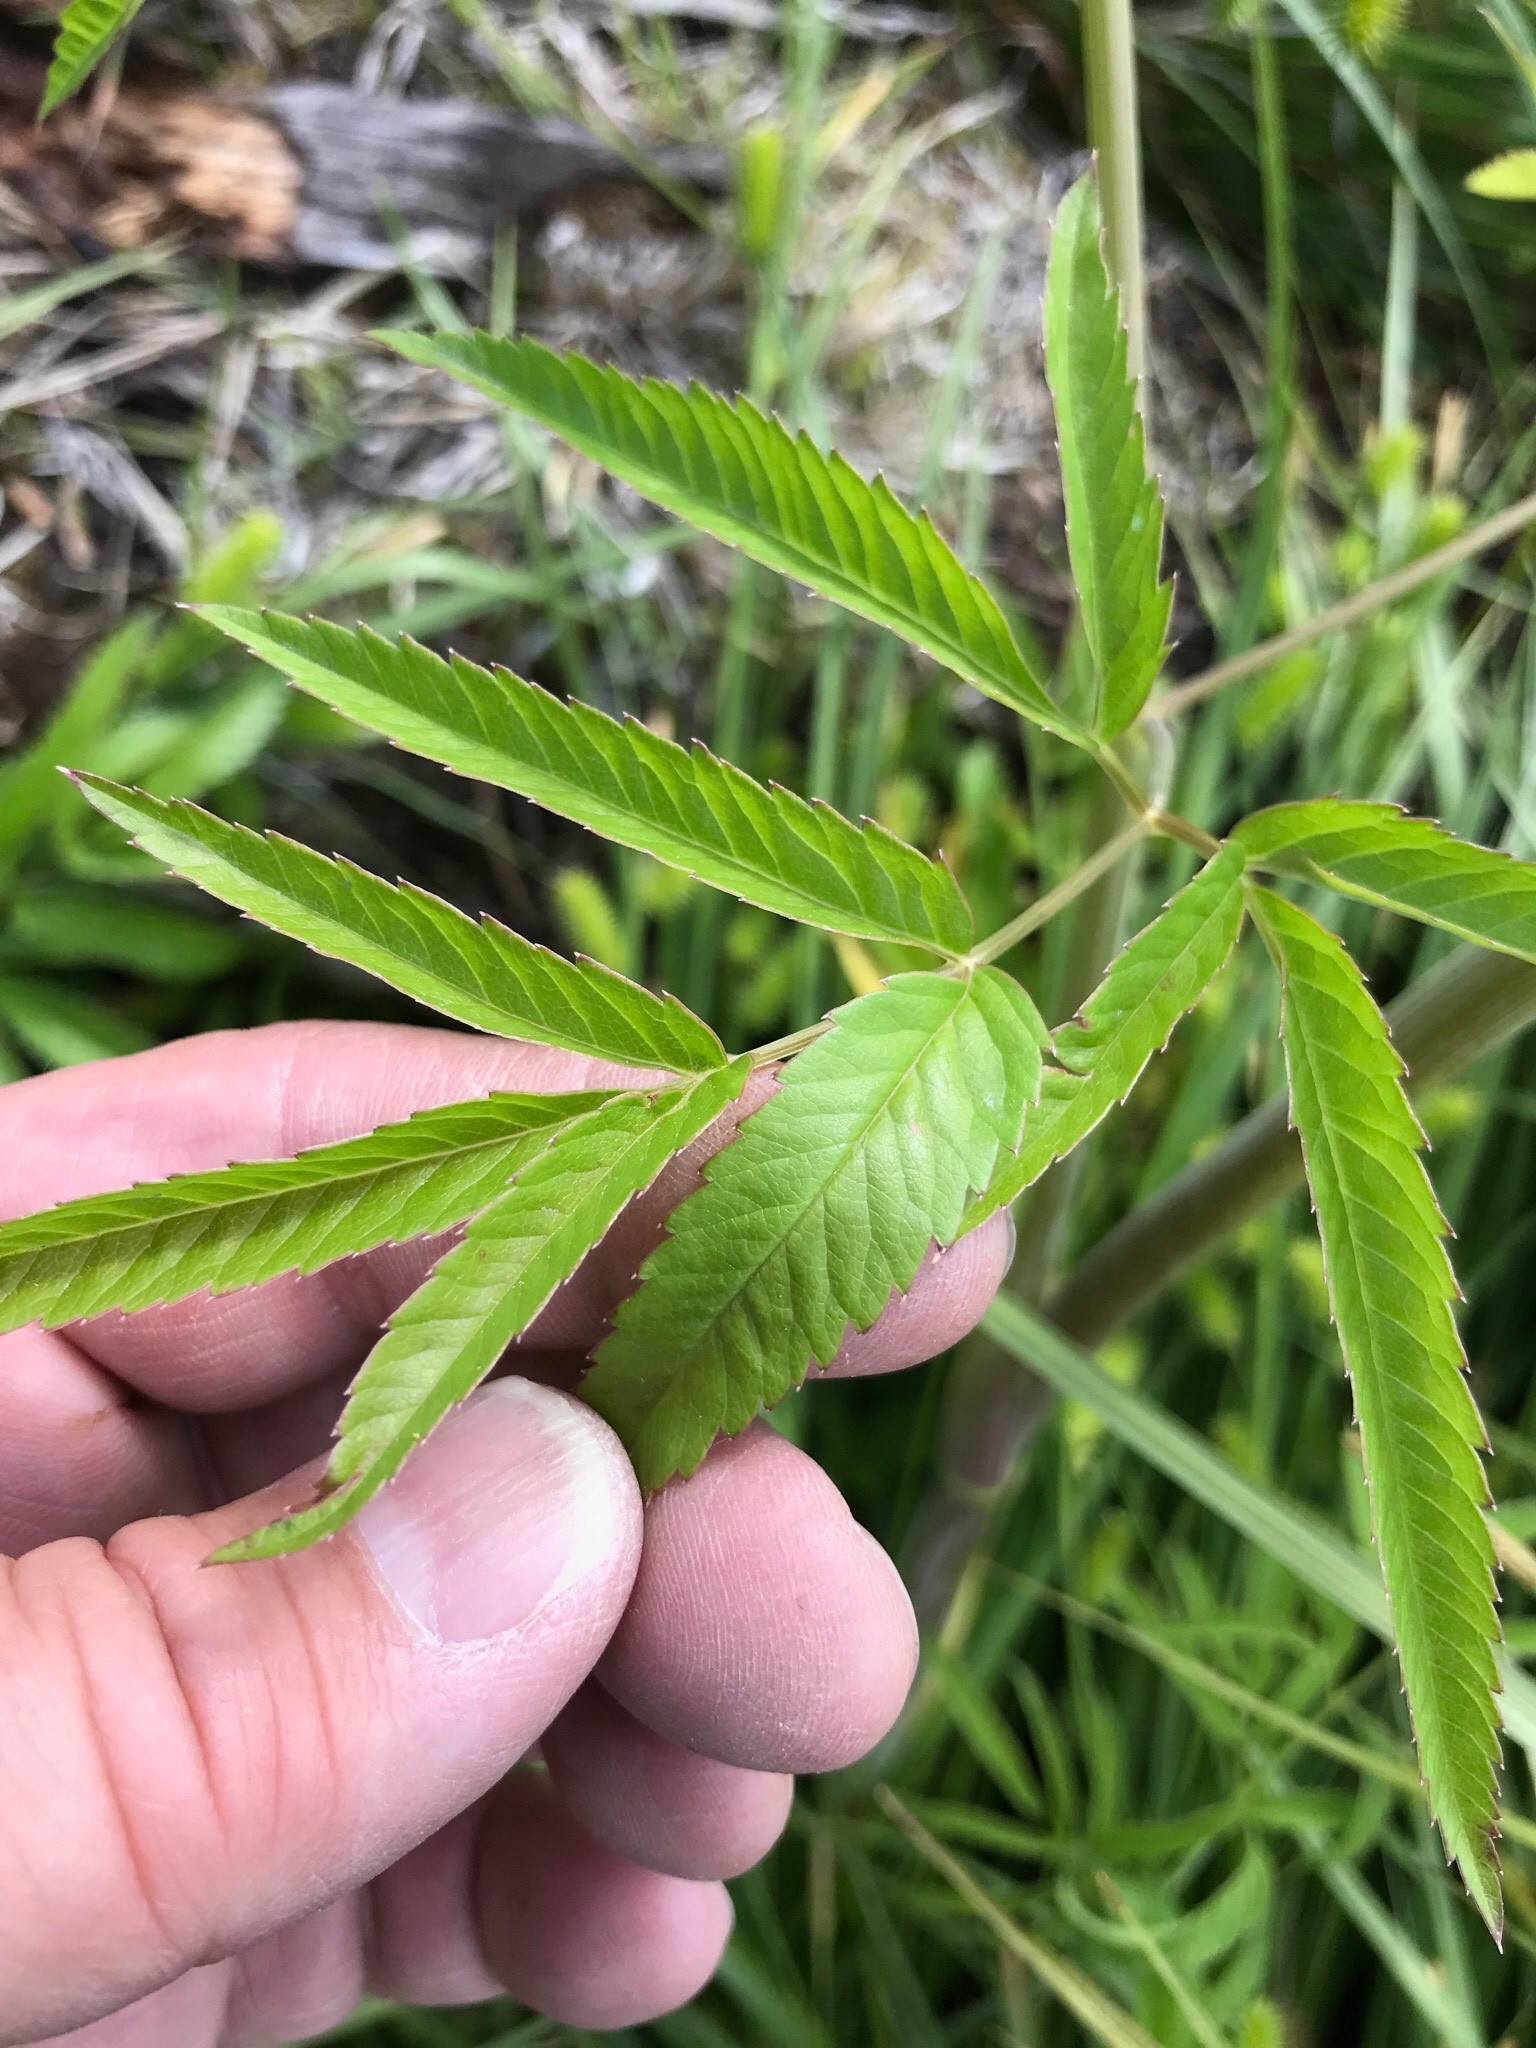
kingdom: Plantae
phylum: Tracheophyta
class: Magnoliopsida
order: Apiales
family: Apiaceae
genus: Cicuta
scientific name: Cicuta maculata
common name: Spotted cowbane
